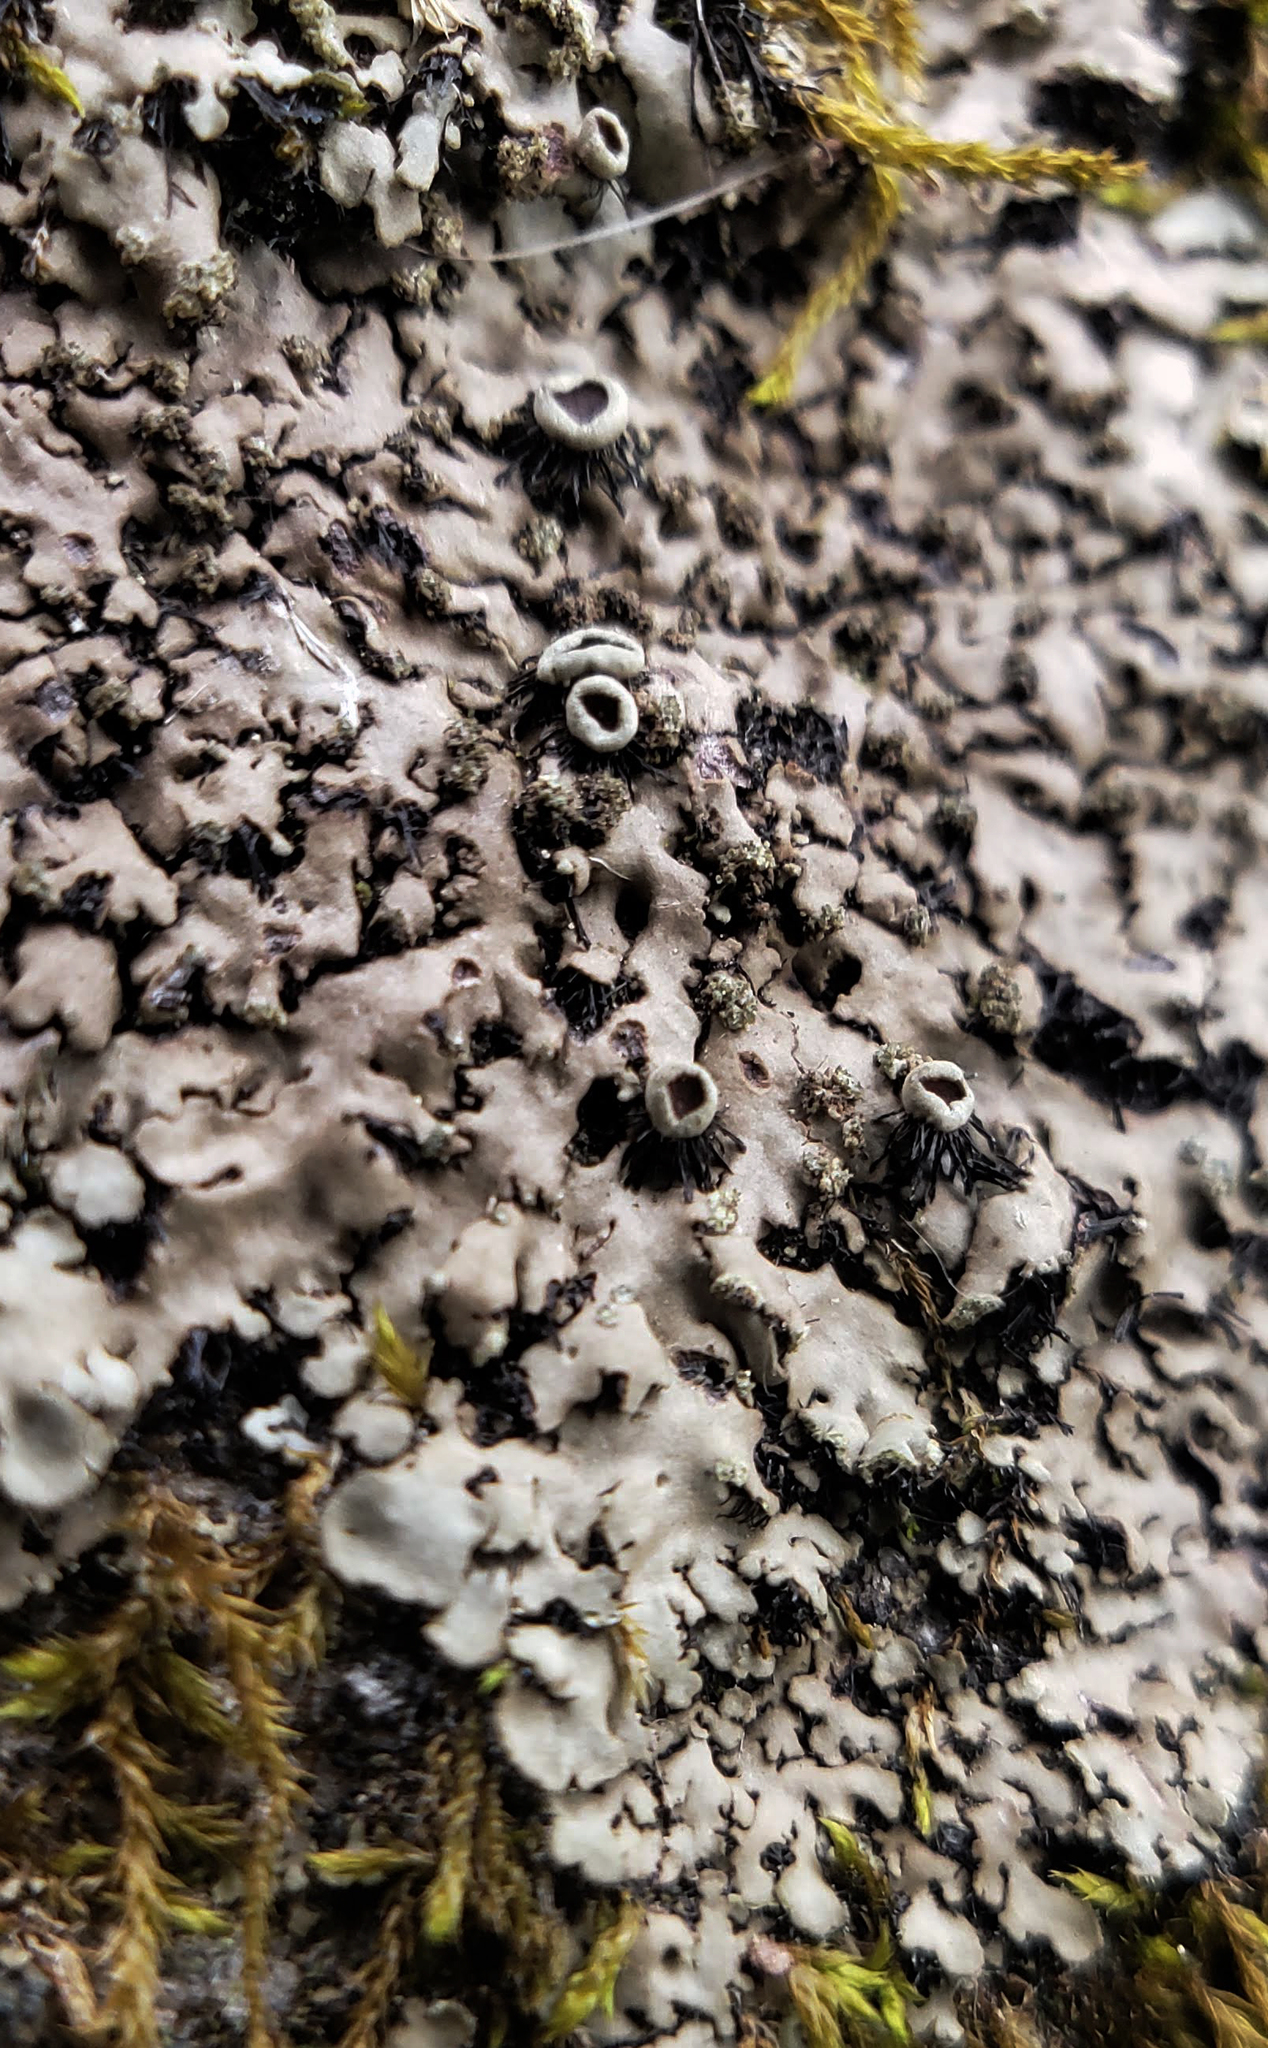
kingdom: Fungi
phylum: Ascomycota
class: Lecanoromycetes
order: Caliciales
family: Physciaceae
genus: Phaeophyscia
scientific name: Phaeophyscia rubropulchra
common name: Orange-cored shadow lichen
